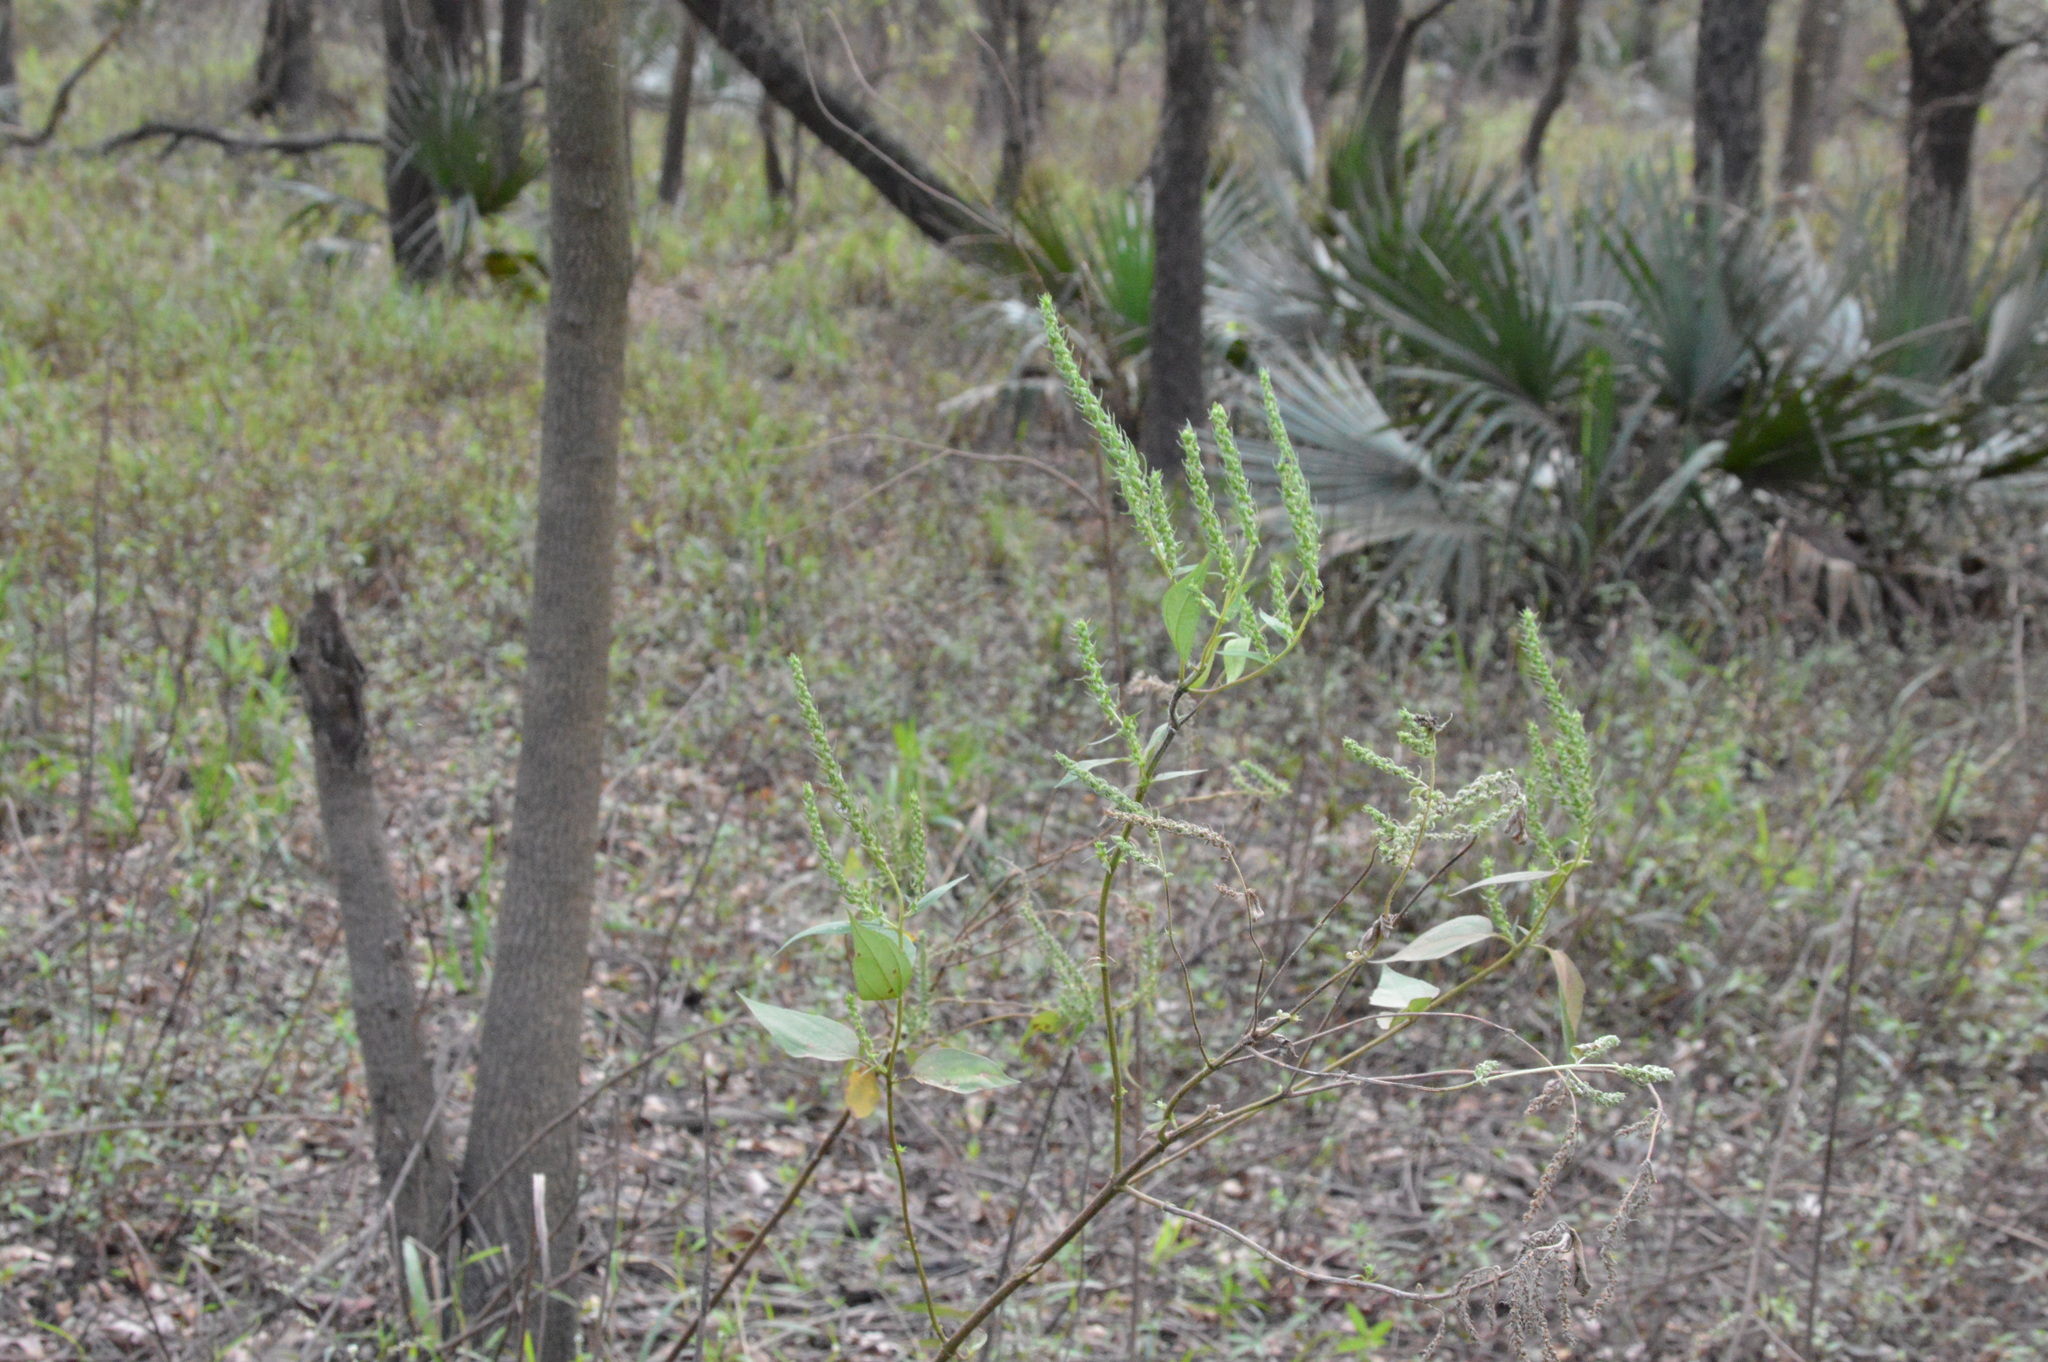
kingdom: Plantae
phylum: Tracheophyta
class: Magnoliopsida
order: Asterales
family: Asteraceae
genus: Iva
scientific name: Iva annua
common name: Marsh-elder
